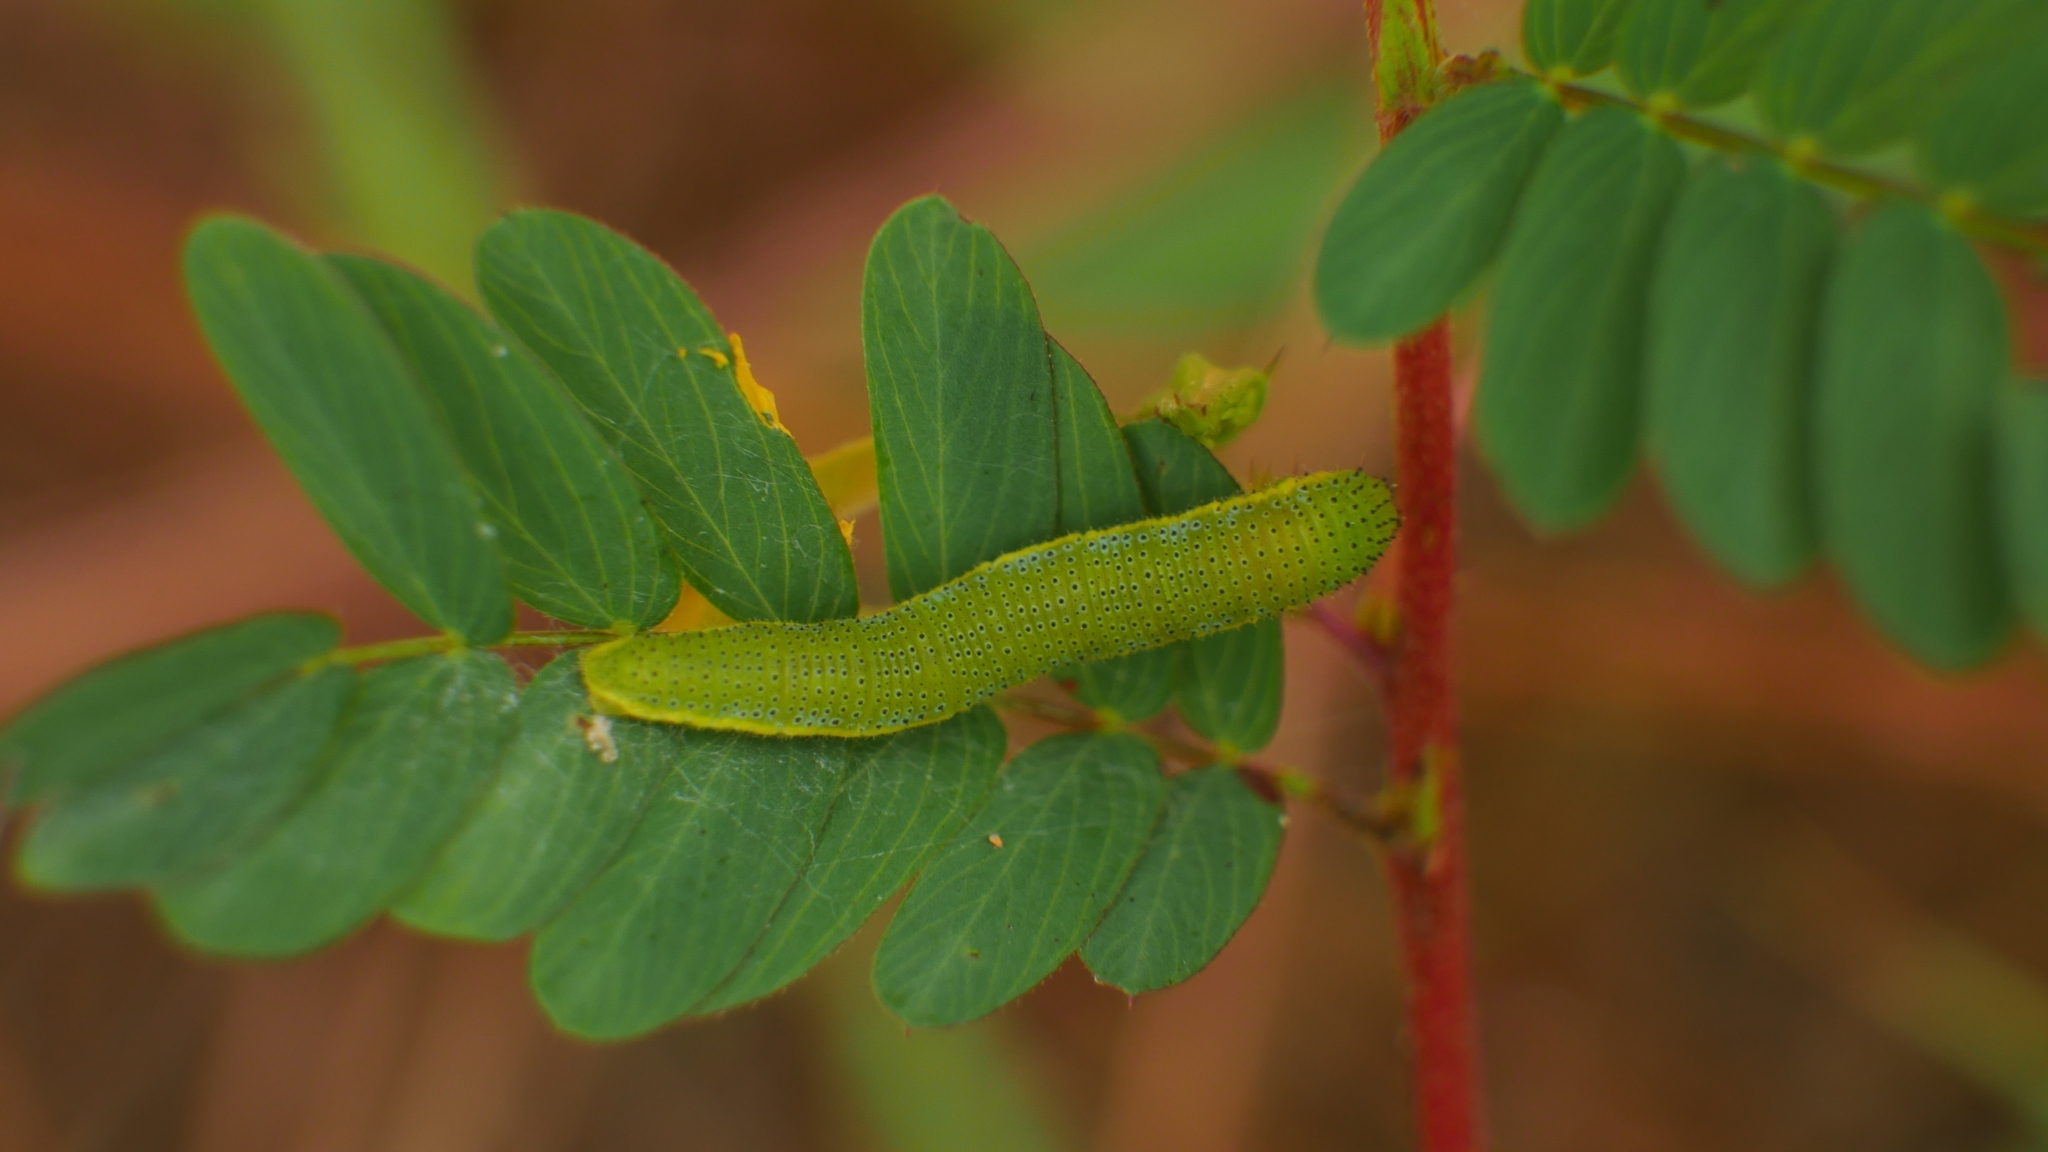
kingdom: Animalia
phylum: Arthropoda
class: Insecta
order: Lepidoptera
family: Pieridae
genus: Phoebis
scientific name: Phoebis sennae
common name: Cloudless sulphur
